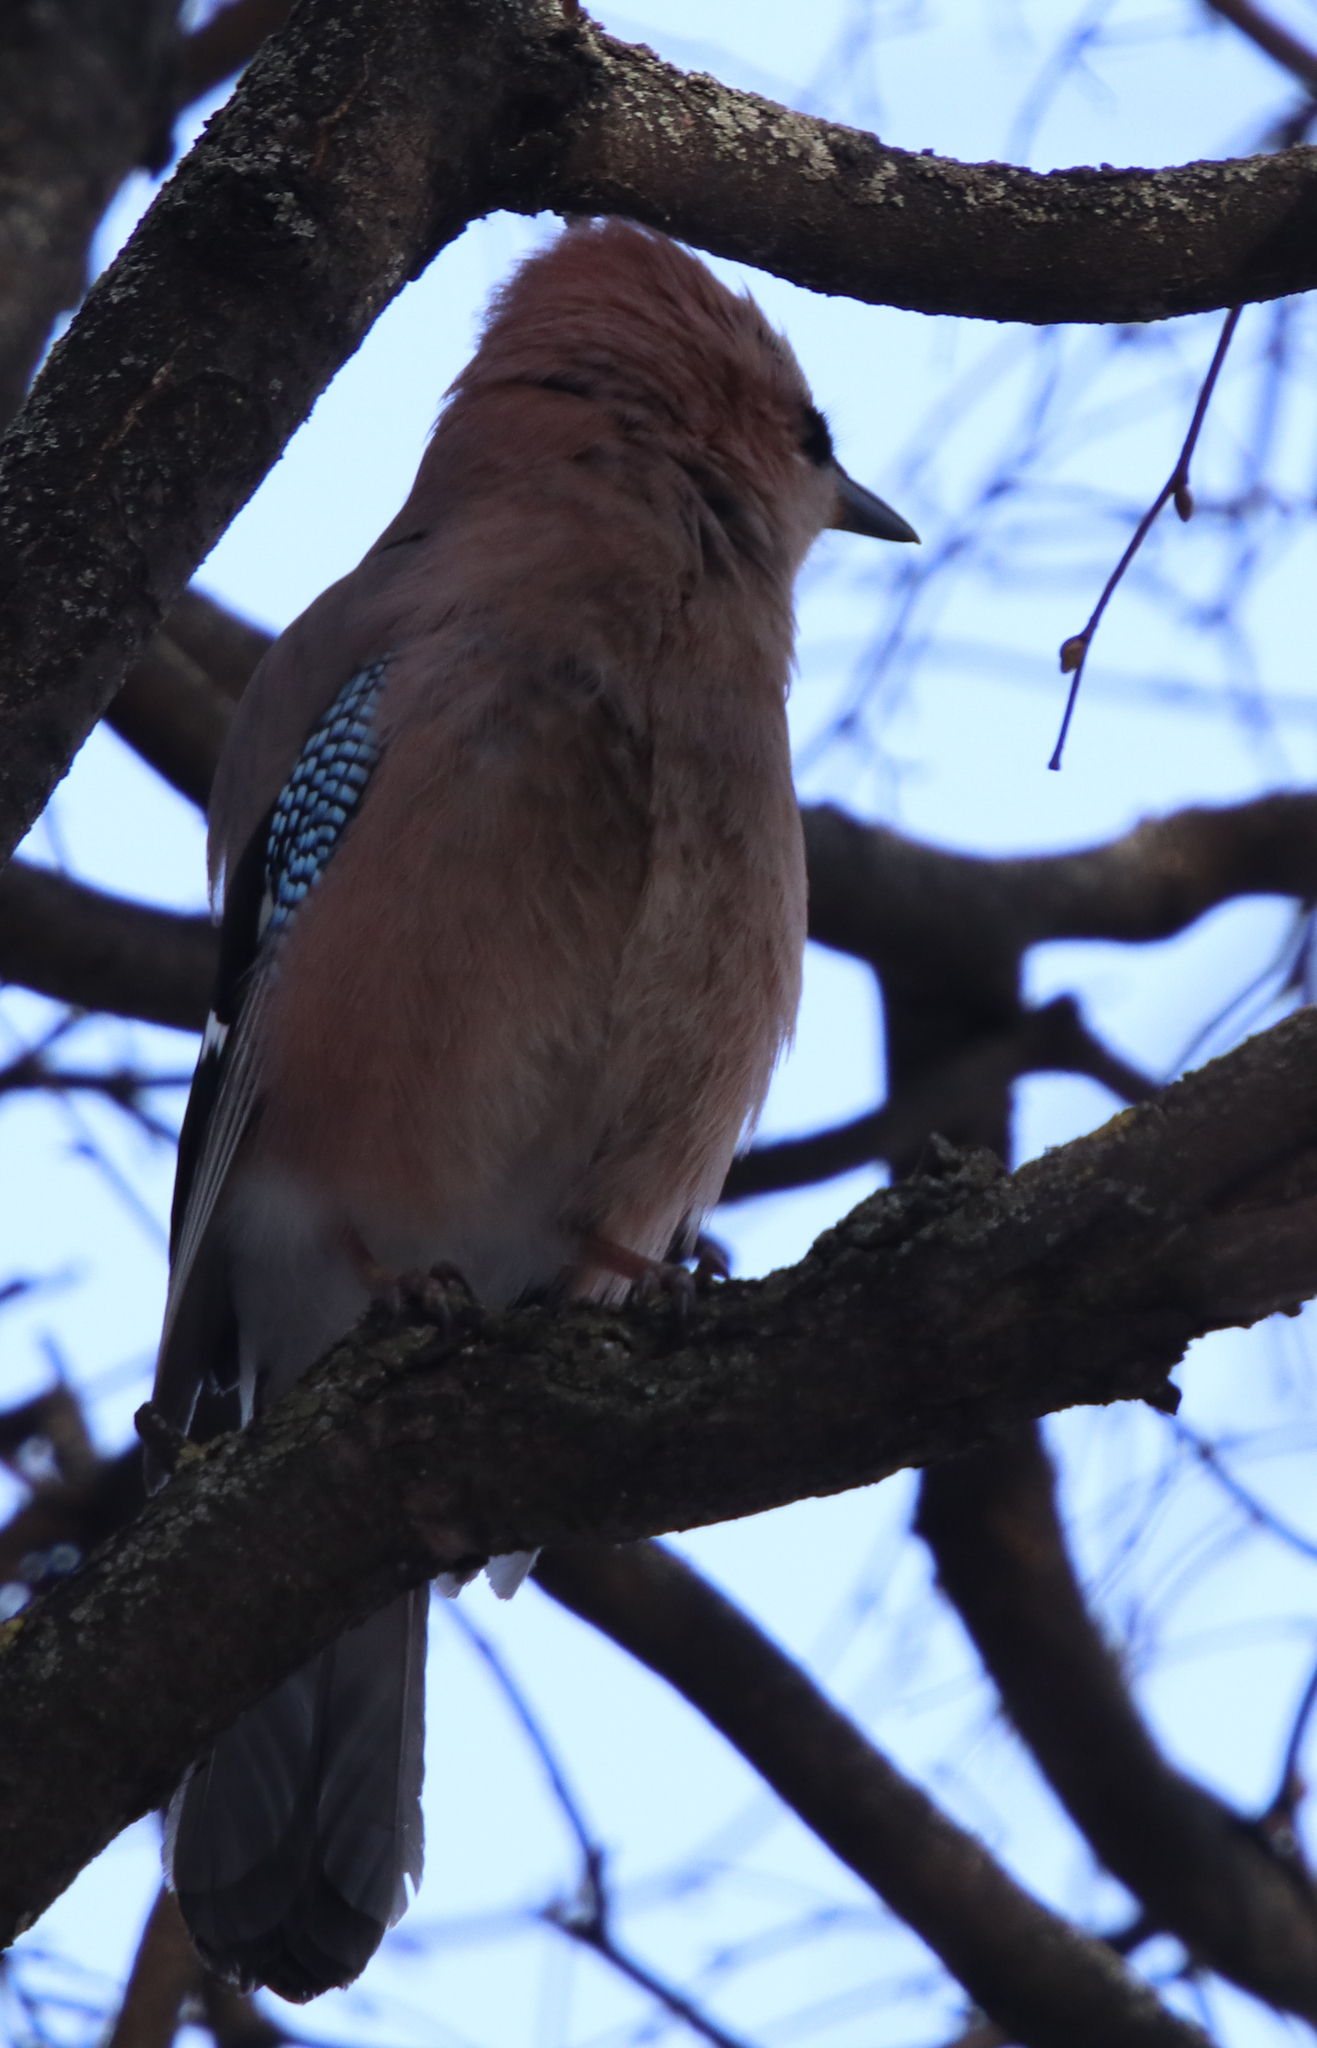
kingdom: Animalia
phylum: Chordata
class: Aves
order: Passeriformes
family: Corvidae
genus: Garrulus
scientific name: Garrulus glandarius
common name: Eurasian jay
